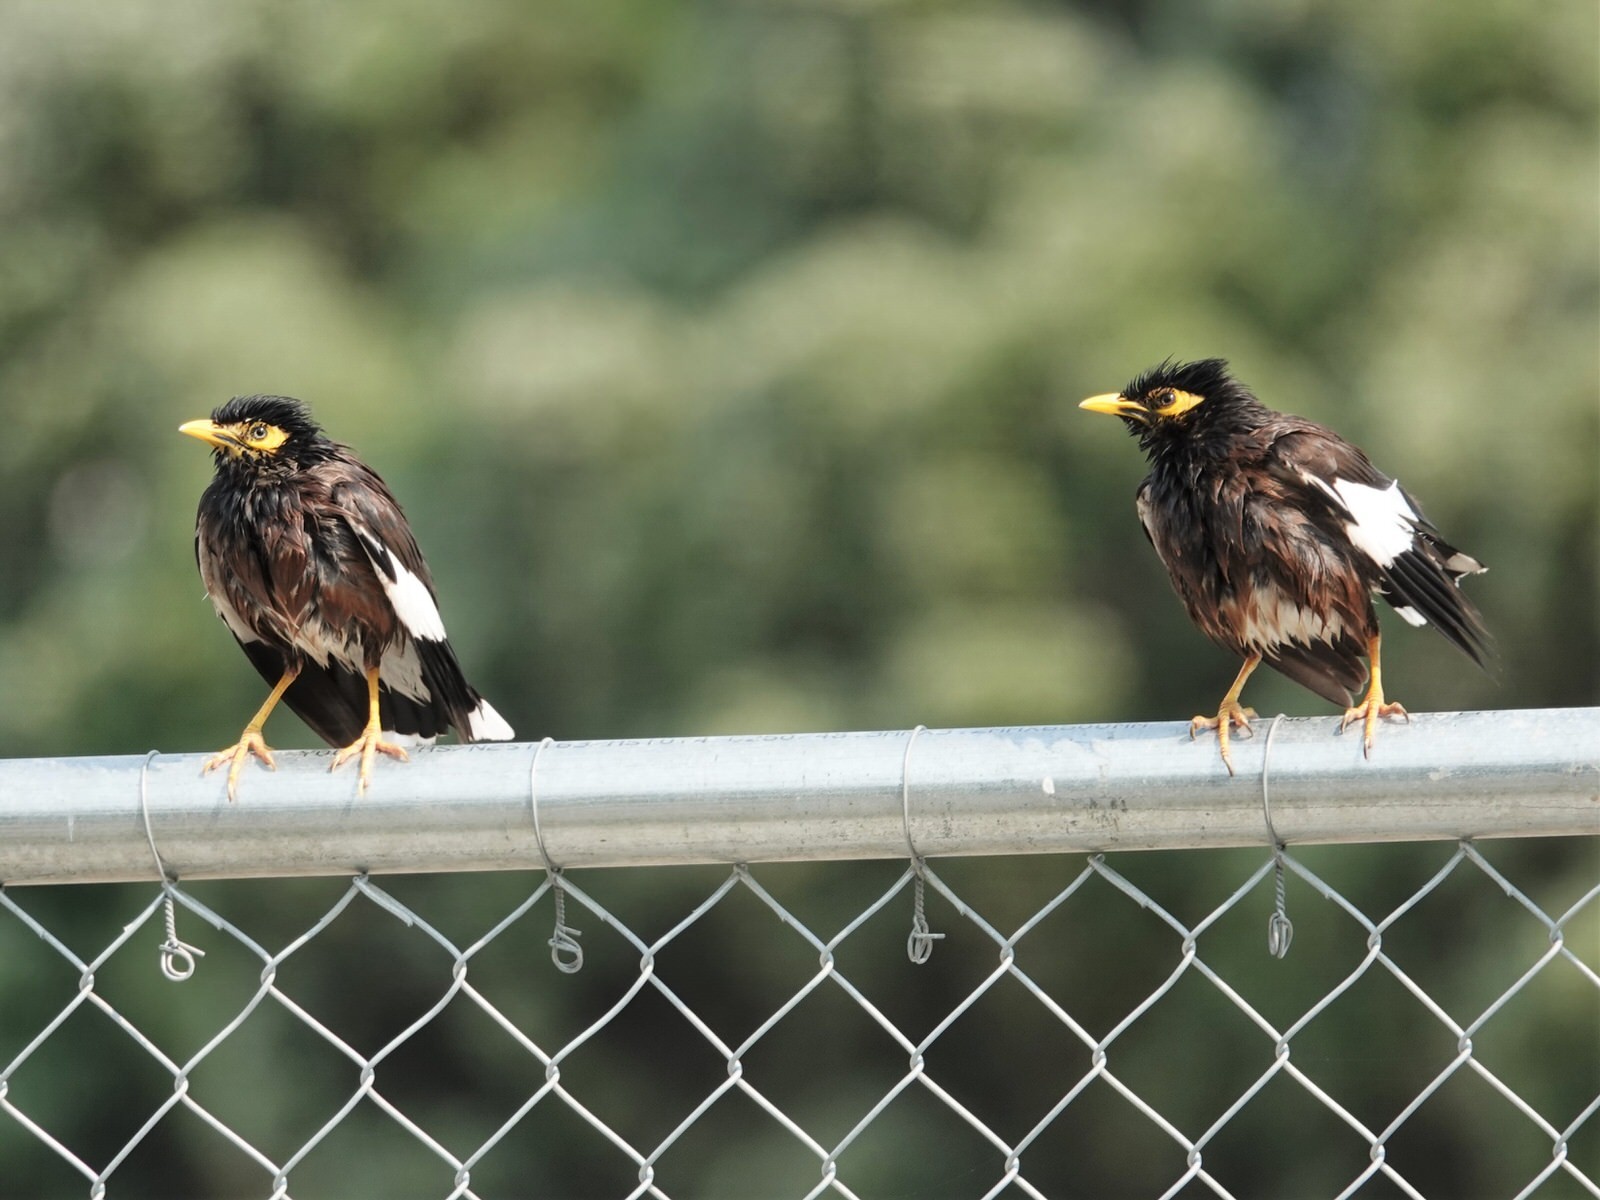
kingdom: Animalia
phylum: Chordata
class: Aves
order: Passeriformes
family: Sturnidae
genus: Acridotheres
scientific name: Acridotheres tristis
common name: Common myna
